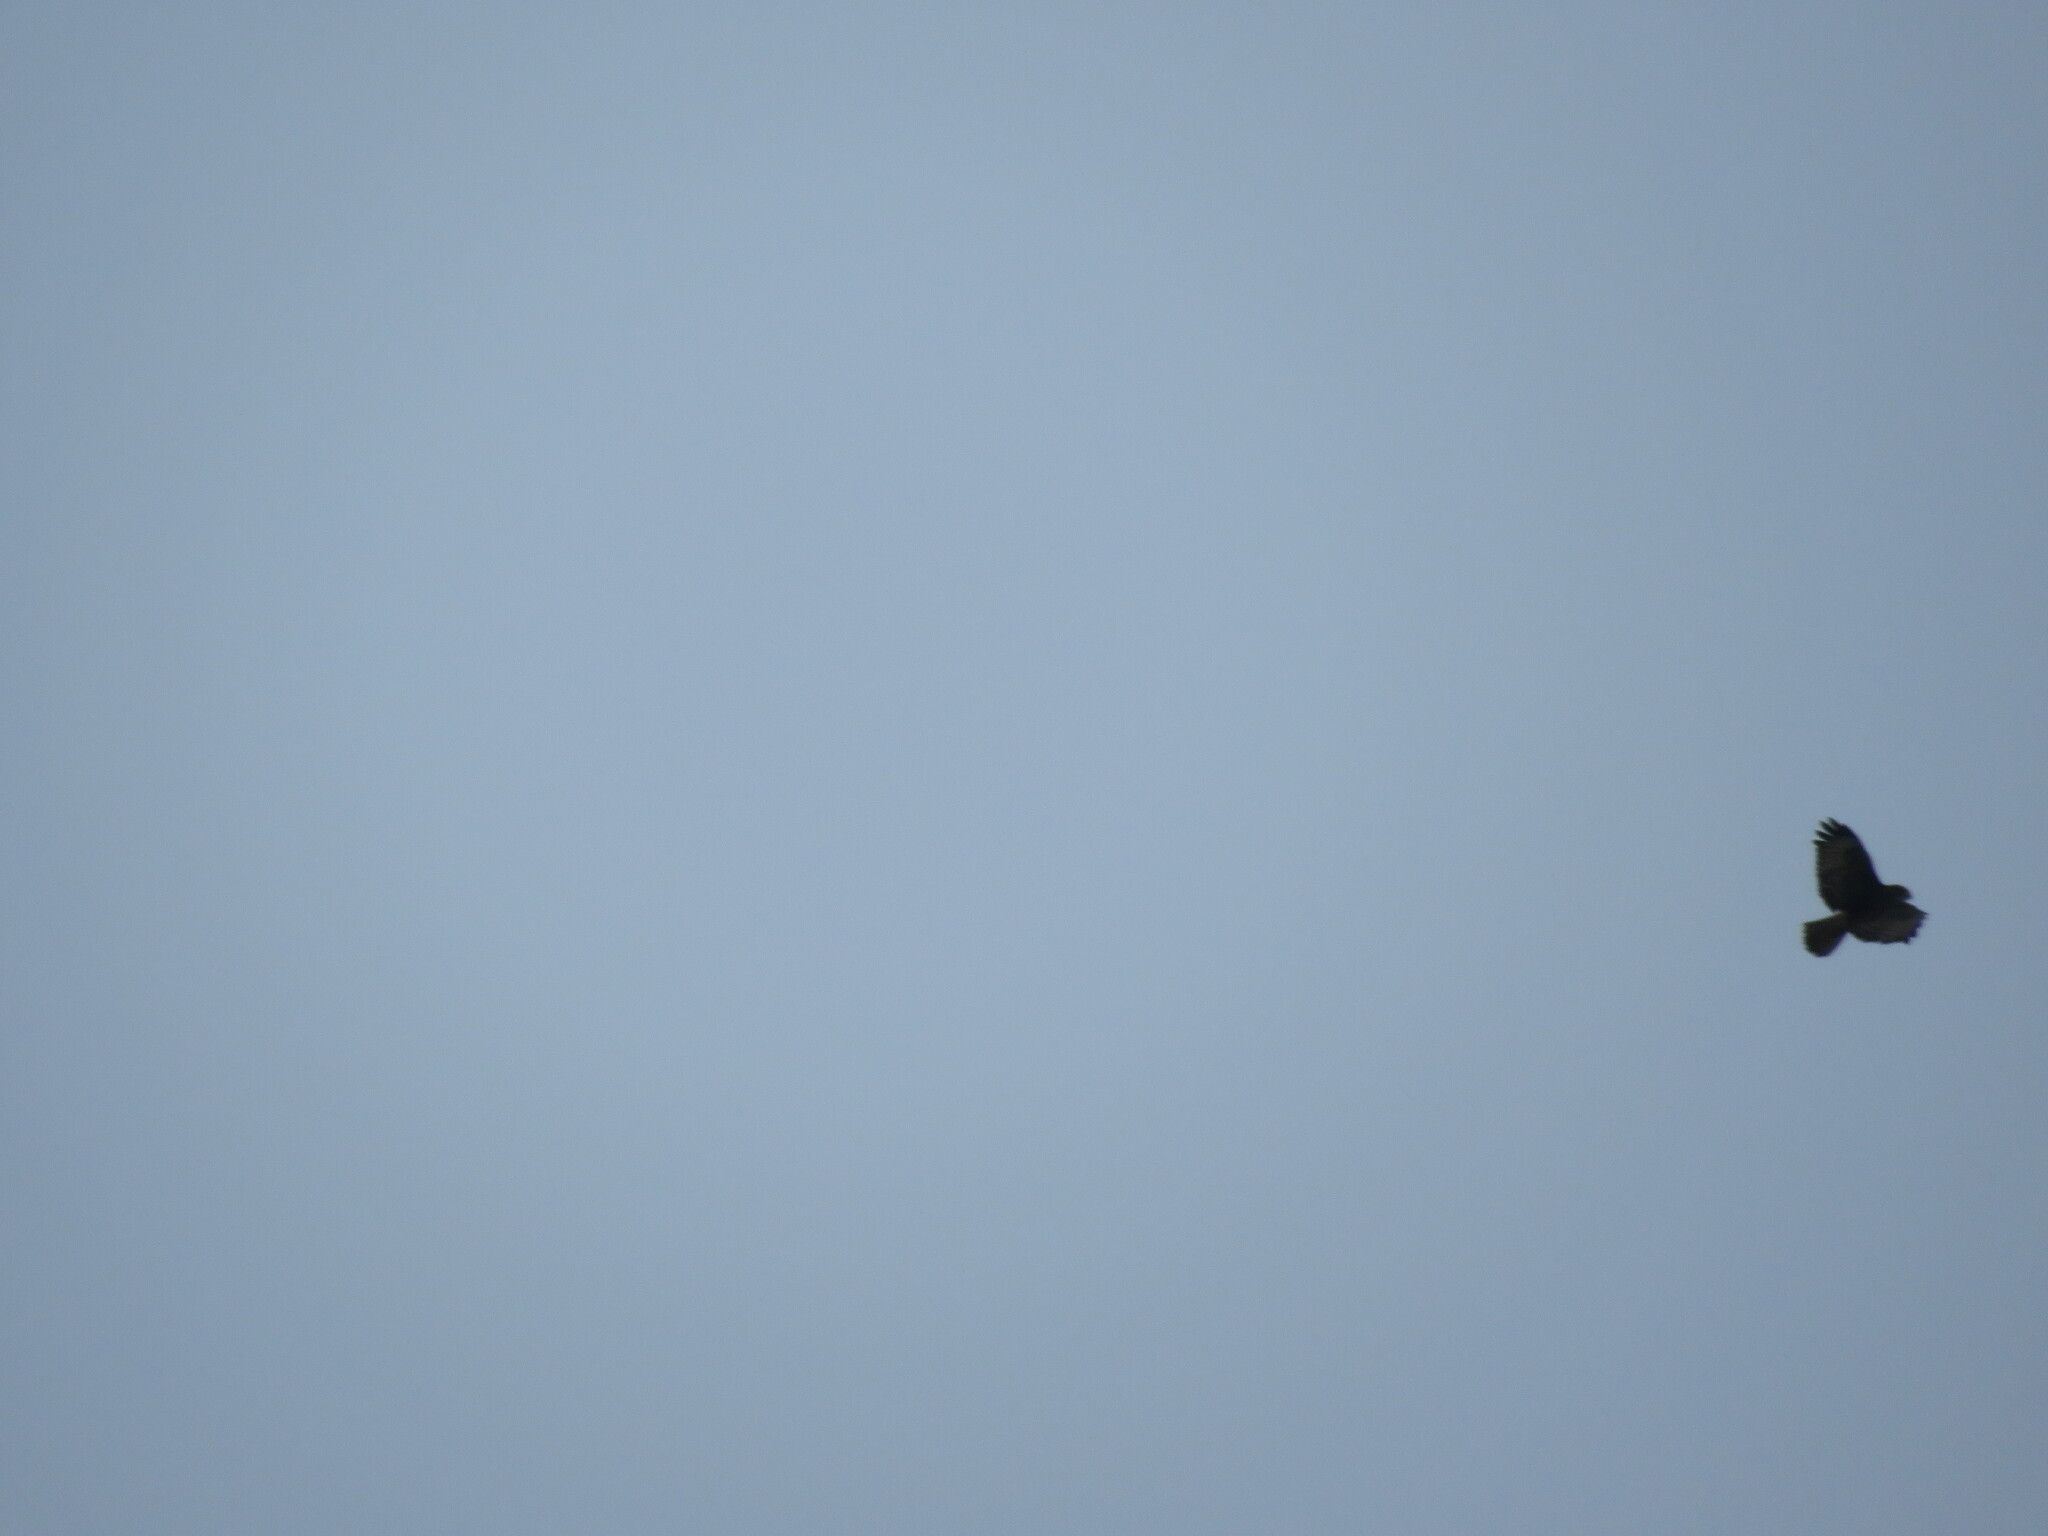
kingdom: Animalia
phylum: Chordata
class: Aves
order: Accipitriformes
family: Accipitridae
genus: Buteo
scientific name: Buteo buteo
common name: Common buzzard
